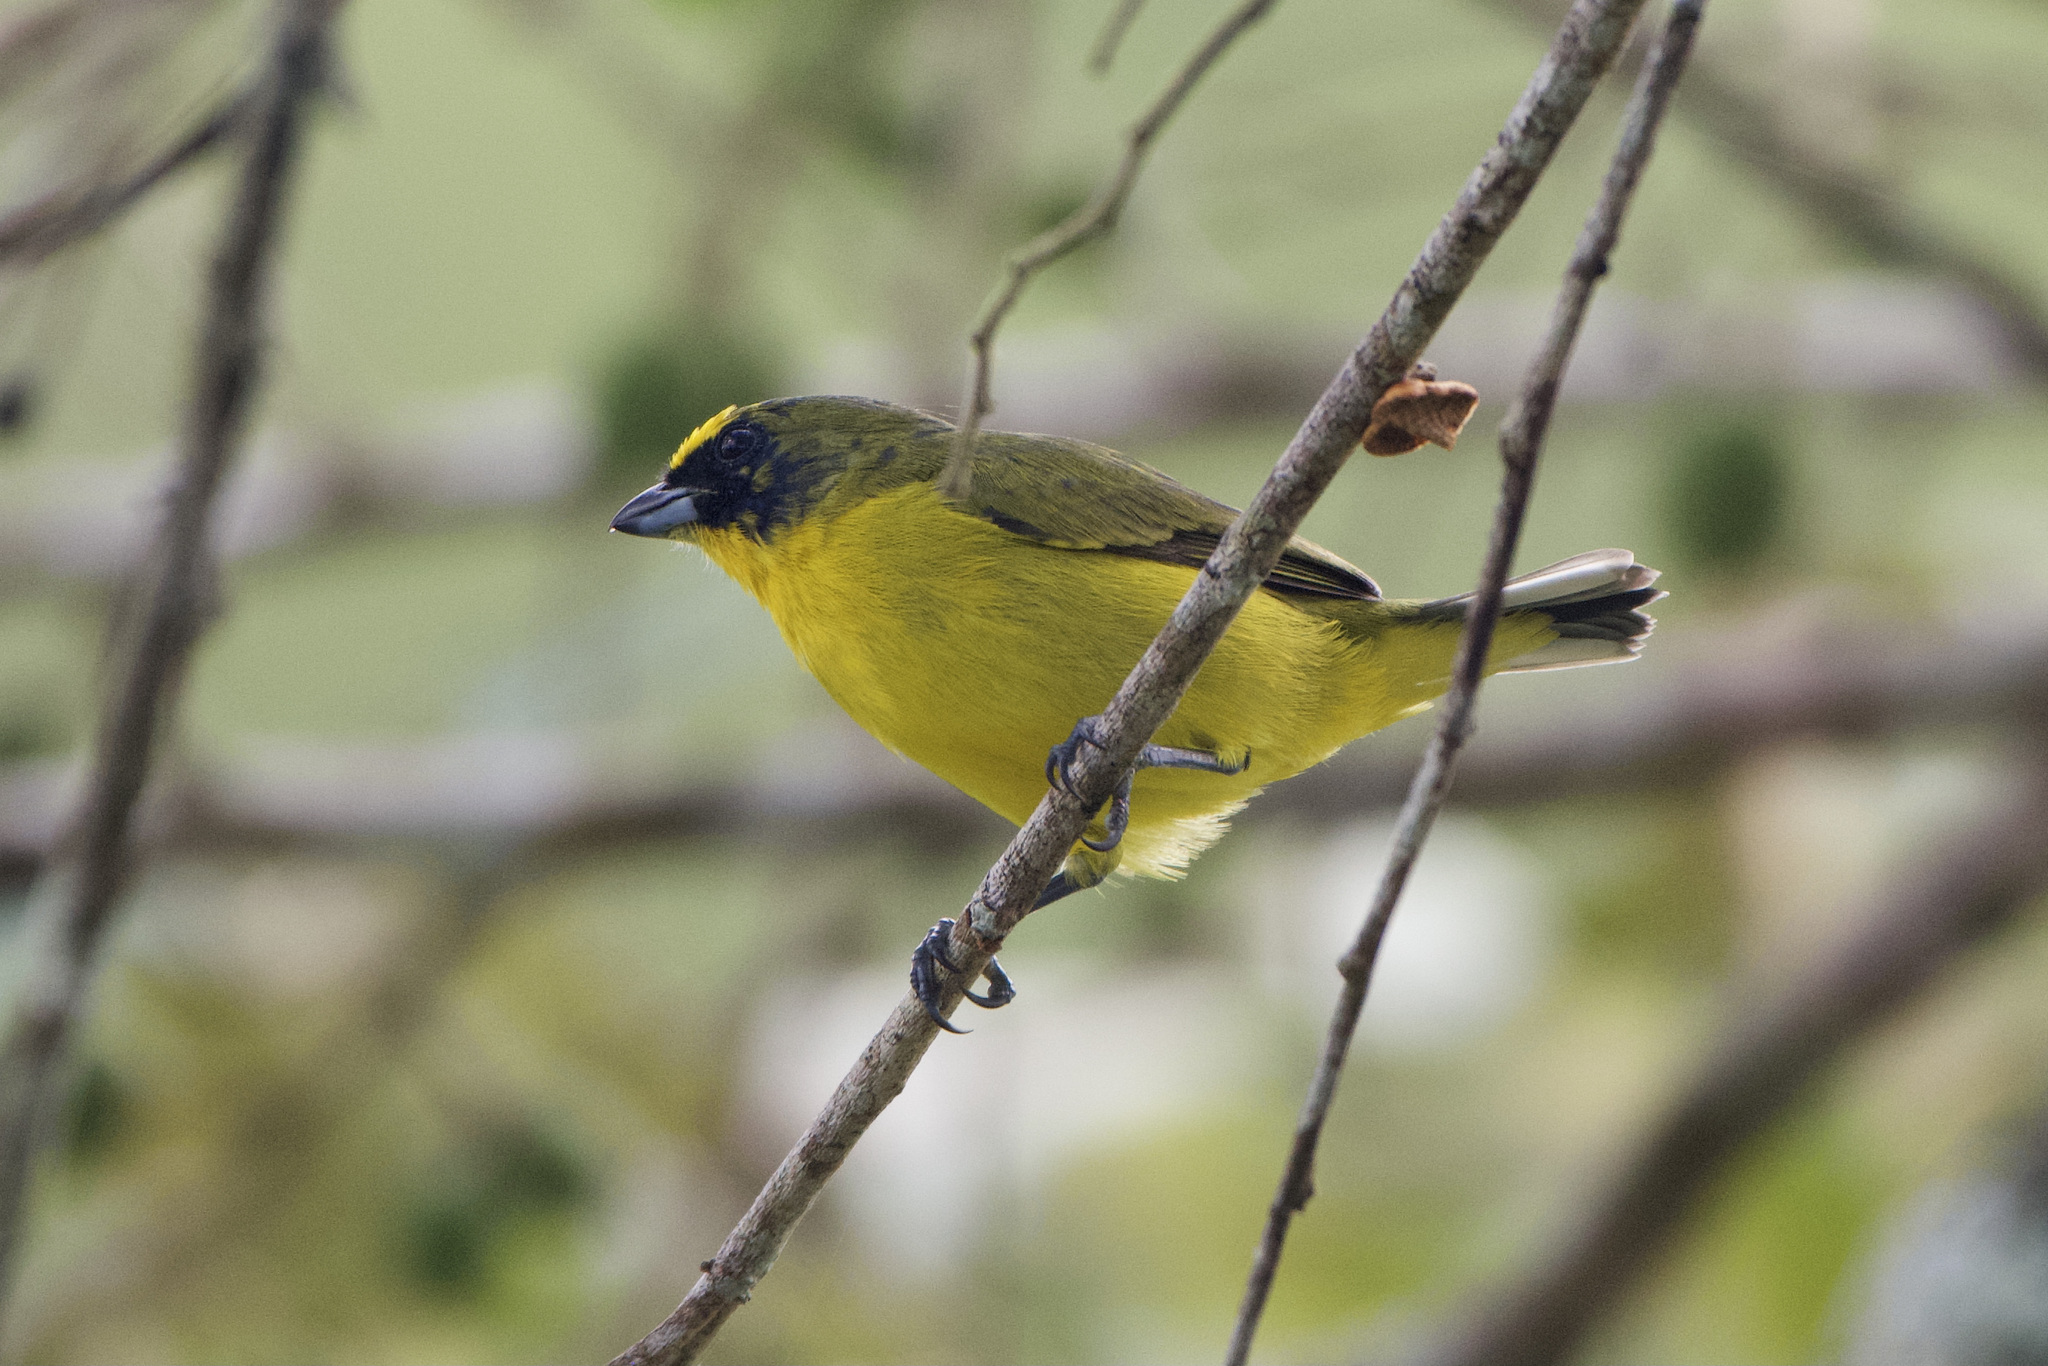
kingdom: Animalia
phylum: Chordata
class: Aves
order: Passeriformes
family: Fringillidae
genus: Euphonia
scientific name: Euphonia laniirostris
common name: Thick-billed euphonia
